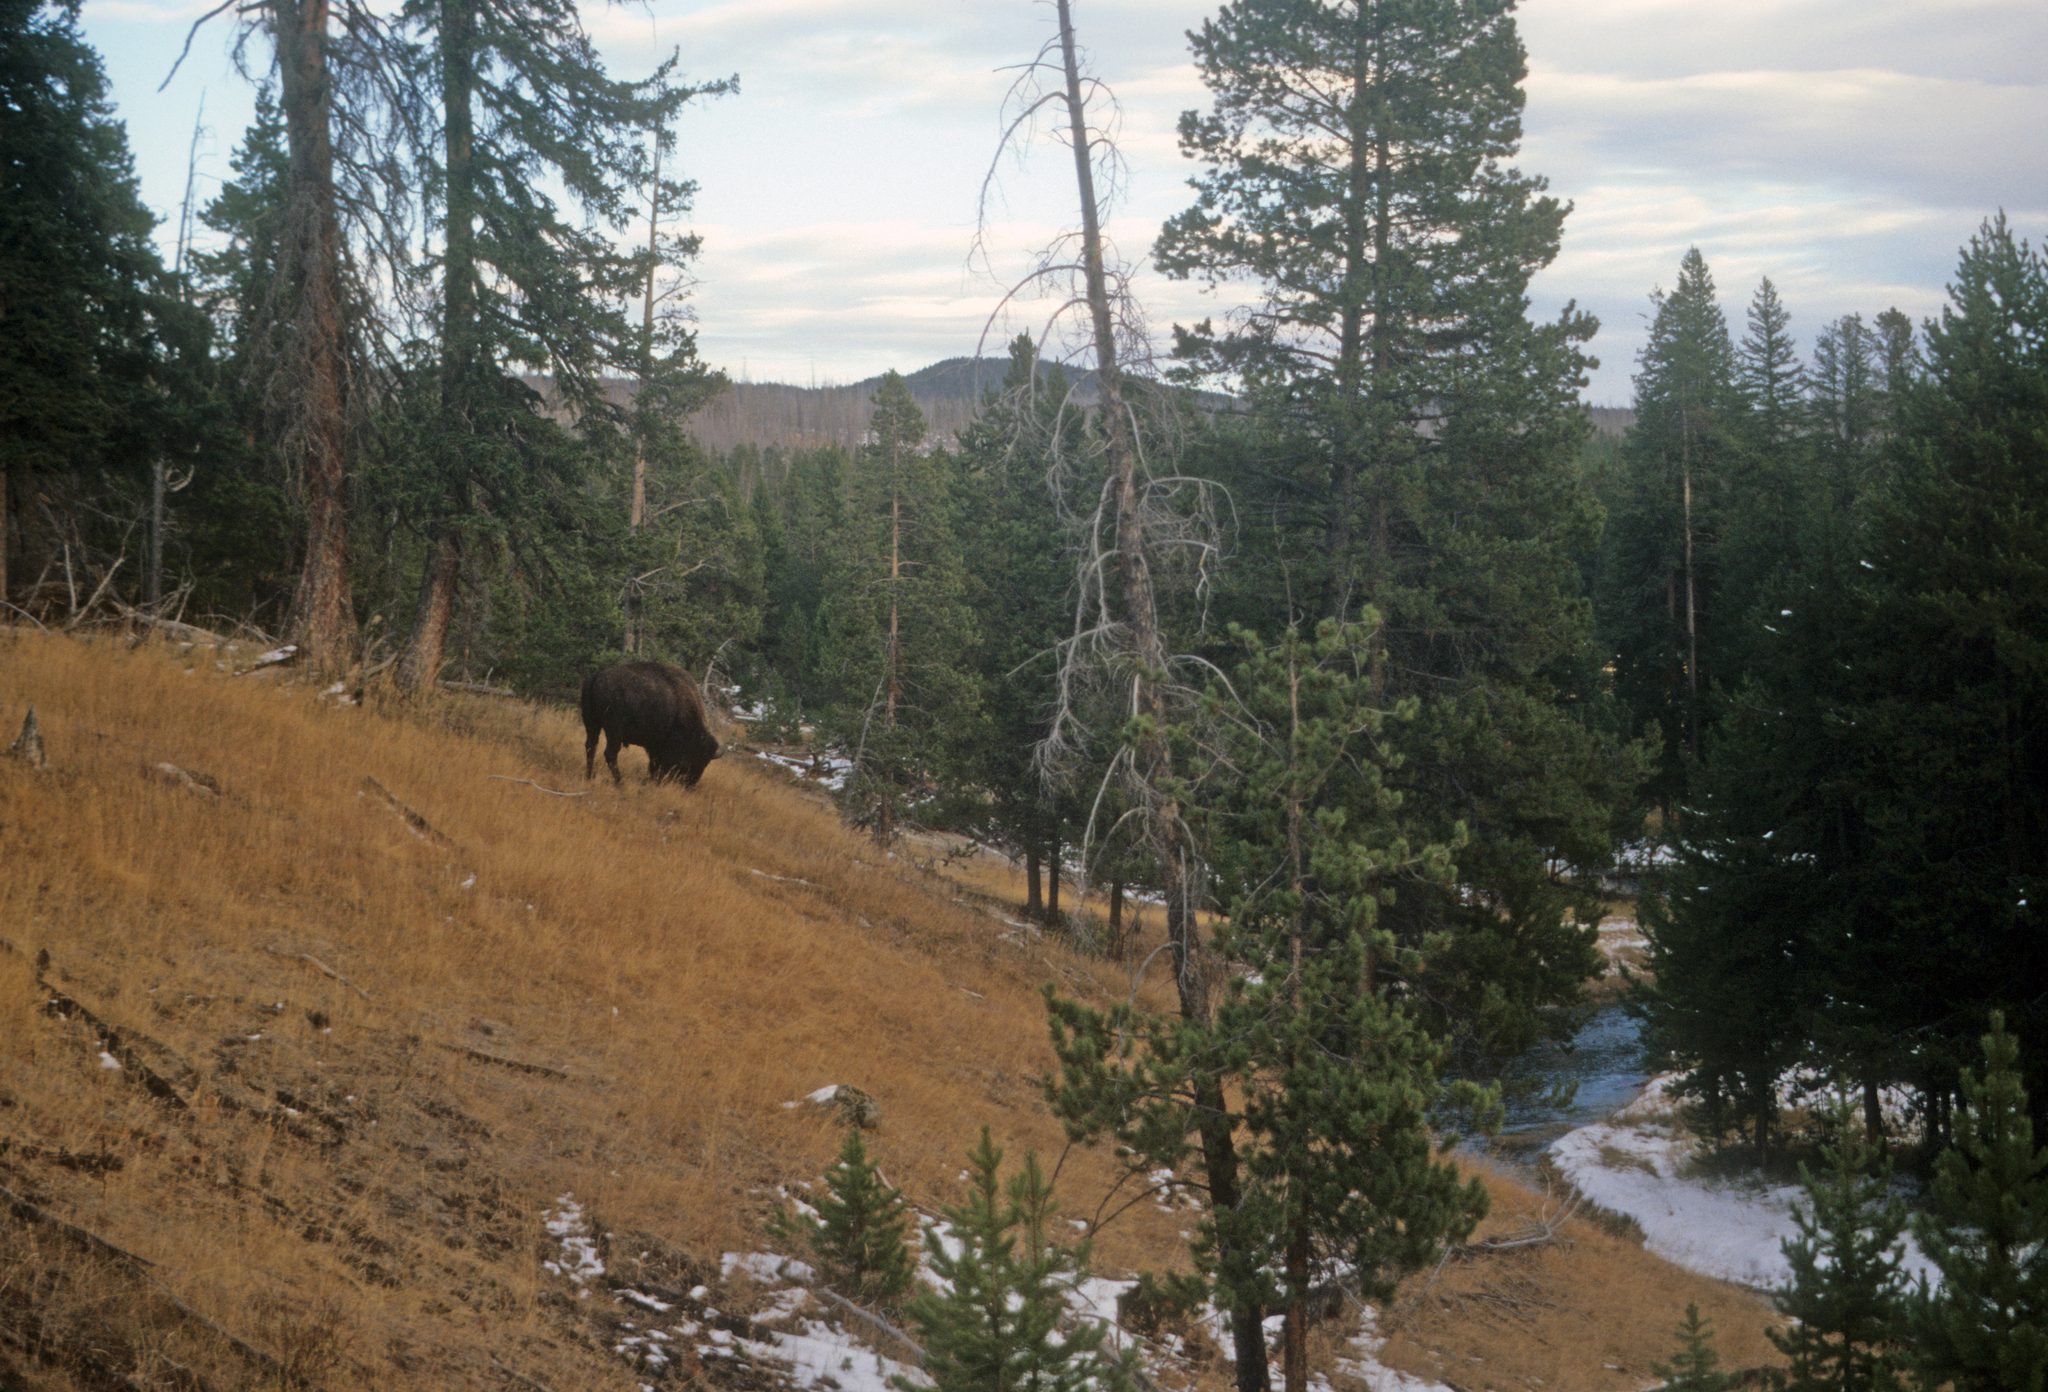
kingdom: Animalia
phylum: Chordata
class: Mammalia
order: Artiodactyla
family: Bovidae
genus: Bison
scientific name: Bison bison
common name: American bison
